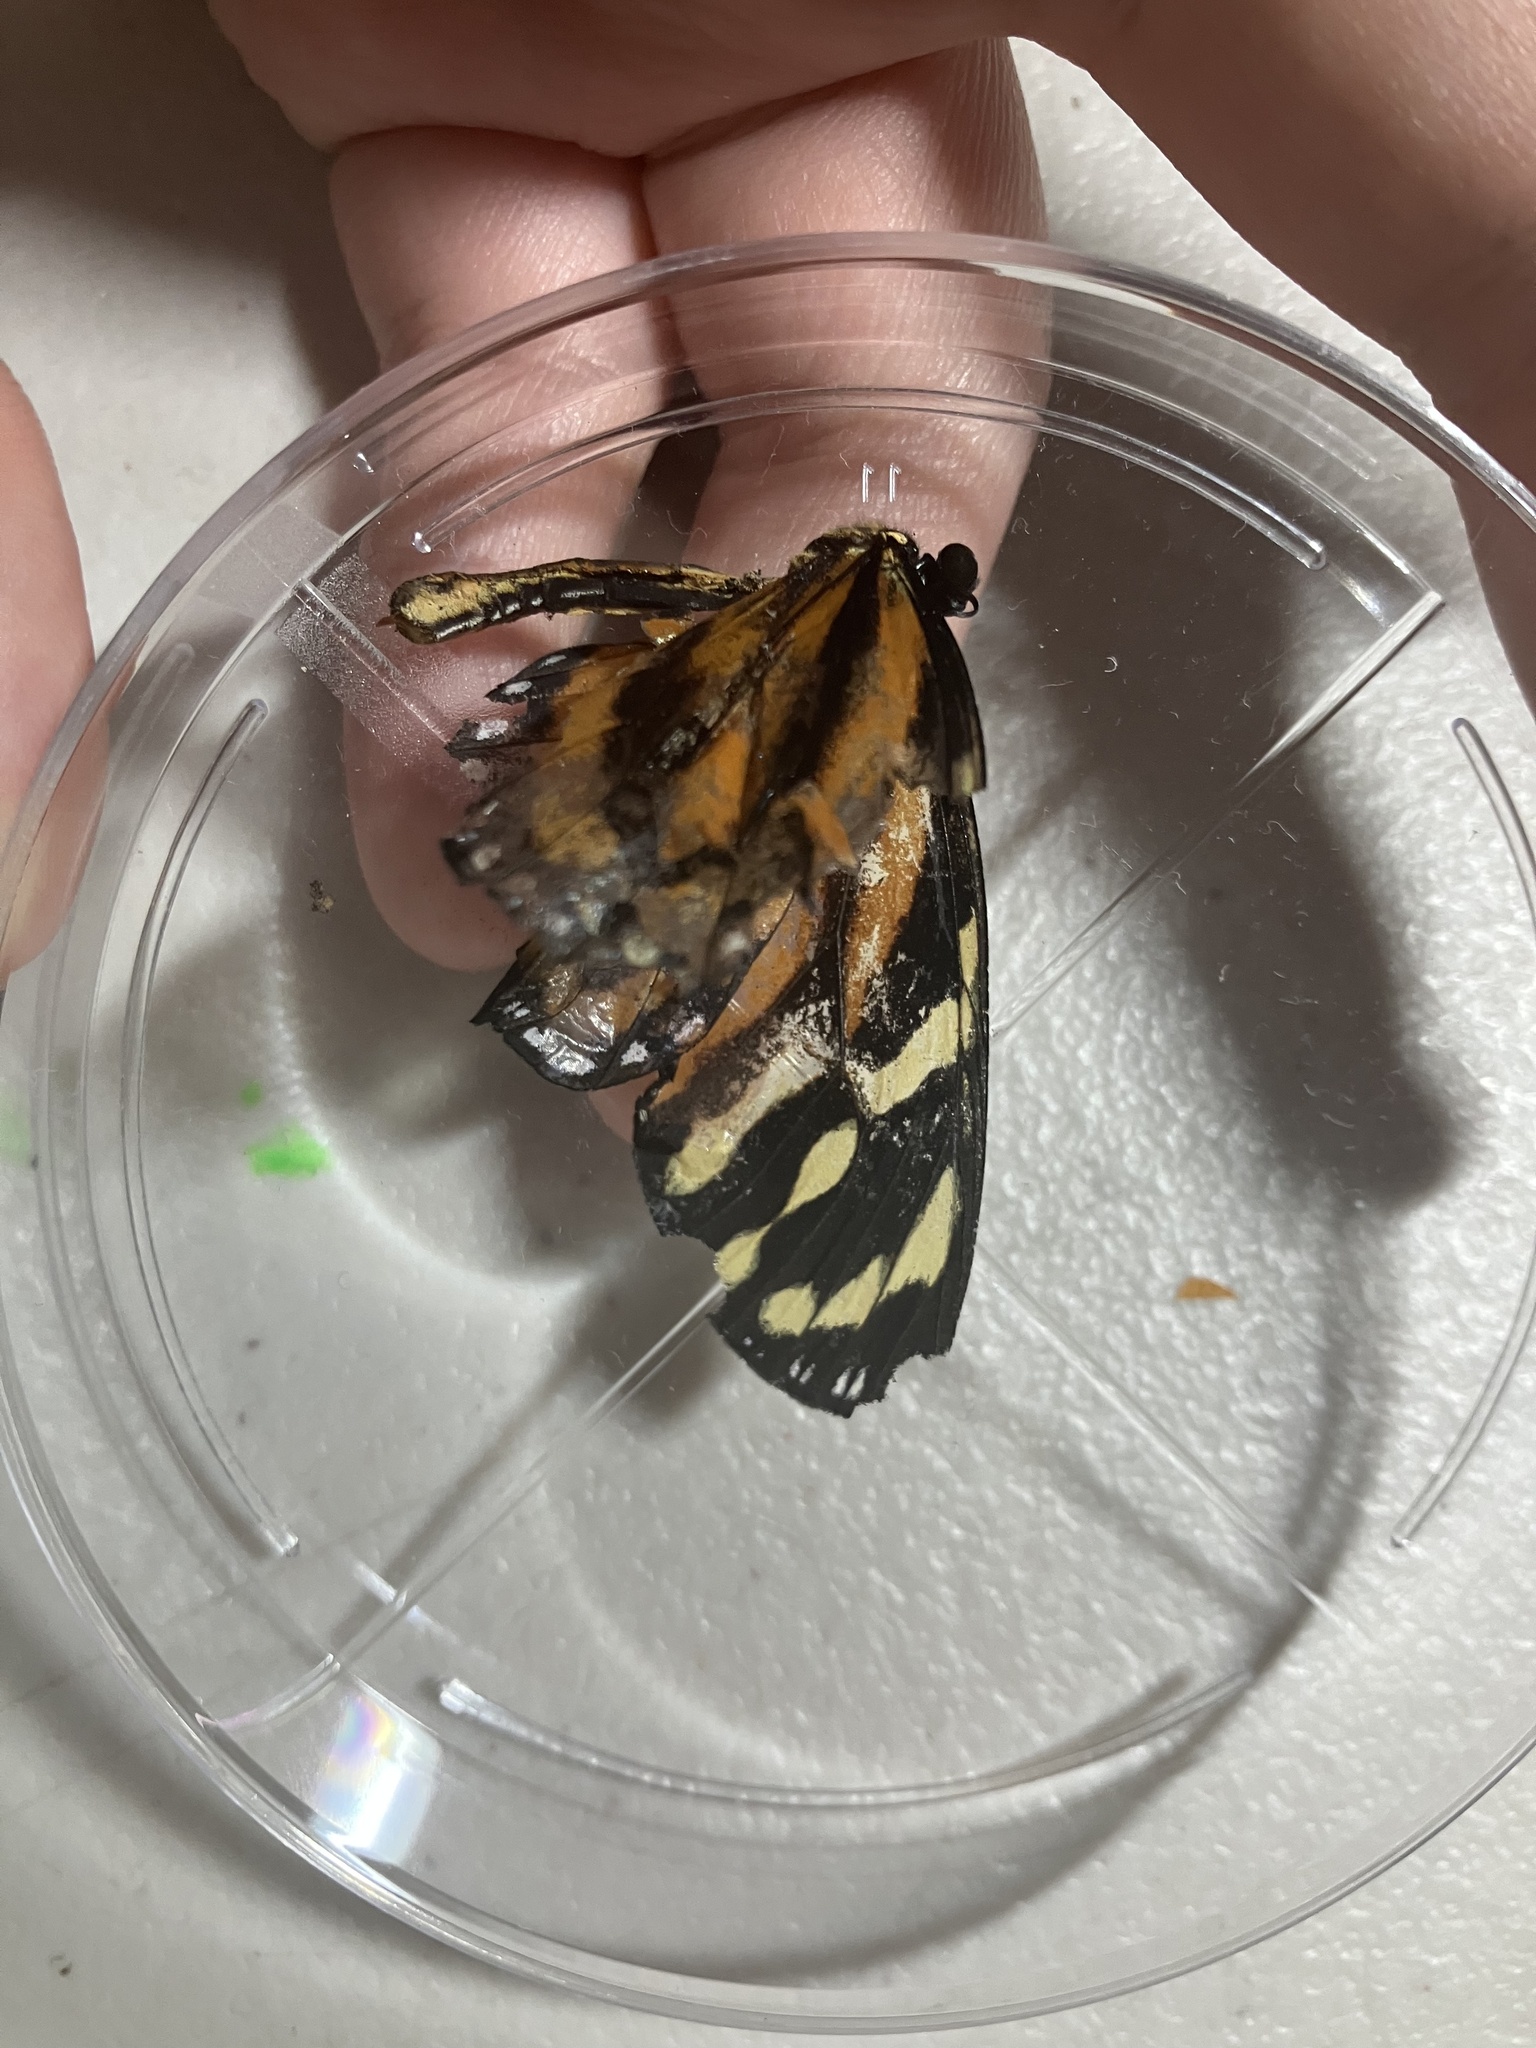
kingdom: Animalia
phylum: Arthropoda
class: Insecta
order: Lepidoptera
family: Nymphalidae
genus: Lycorea
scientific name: Lycorea cleobaea
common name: Tiger mimic-queen
